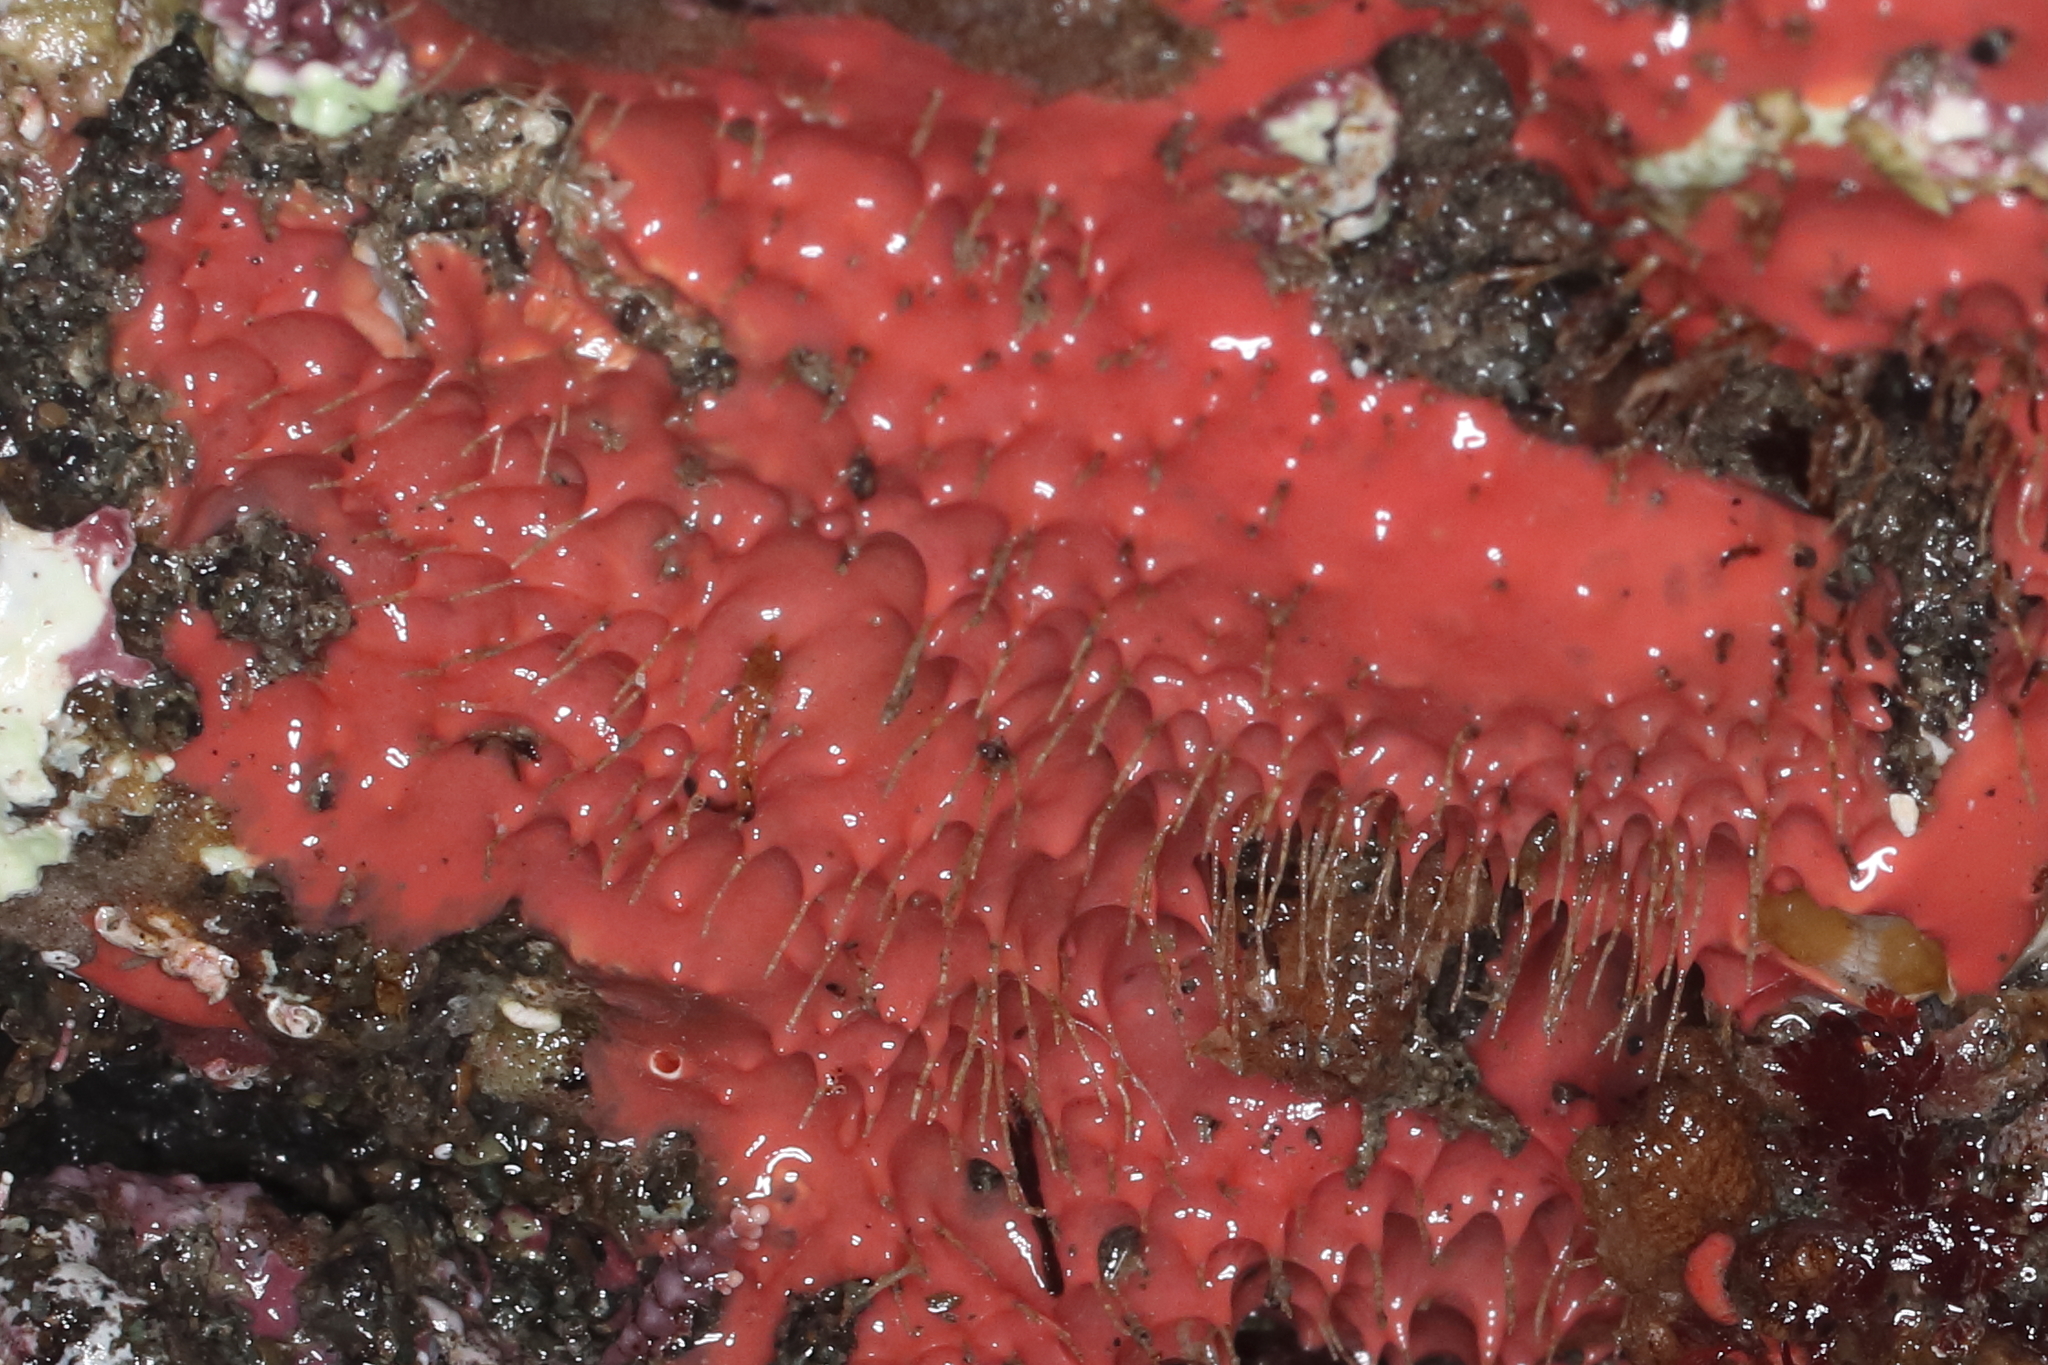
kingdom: Animalia
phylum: Porifera
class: Demospongiae
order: Dendroceratida
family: Darwinellidae
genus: Aplysilla
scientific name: Aplysilla glacialis
